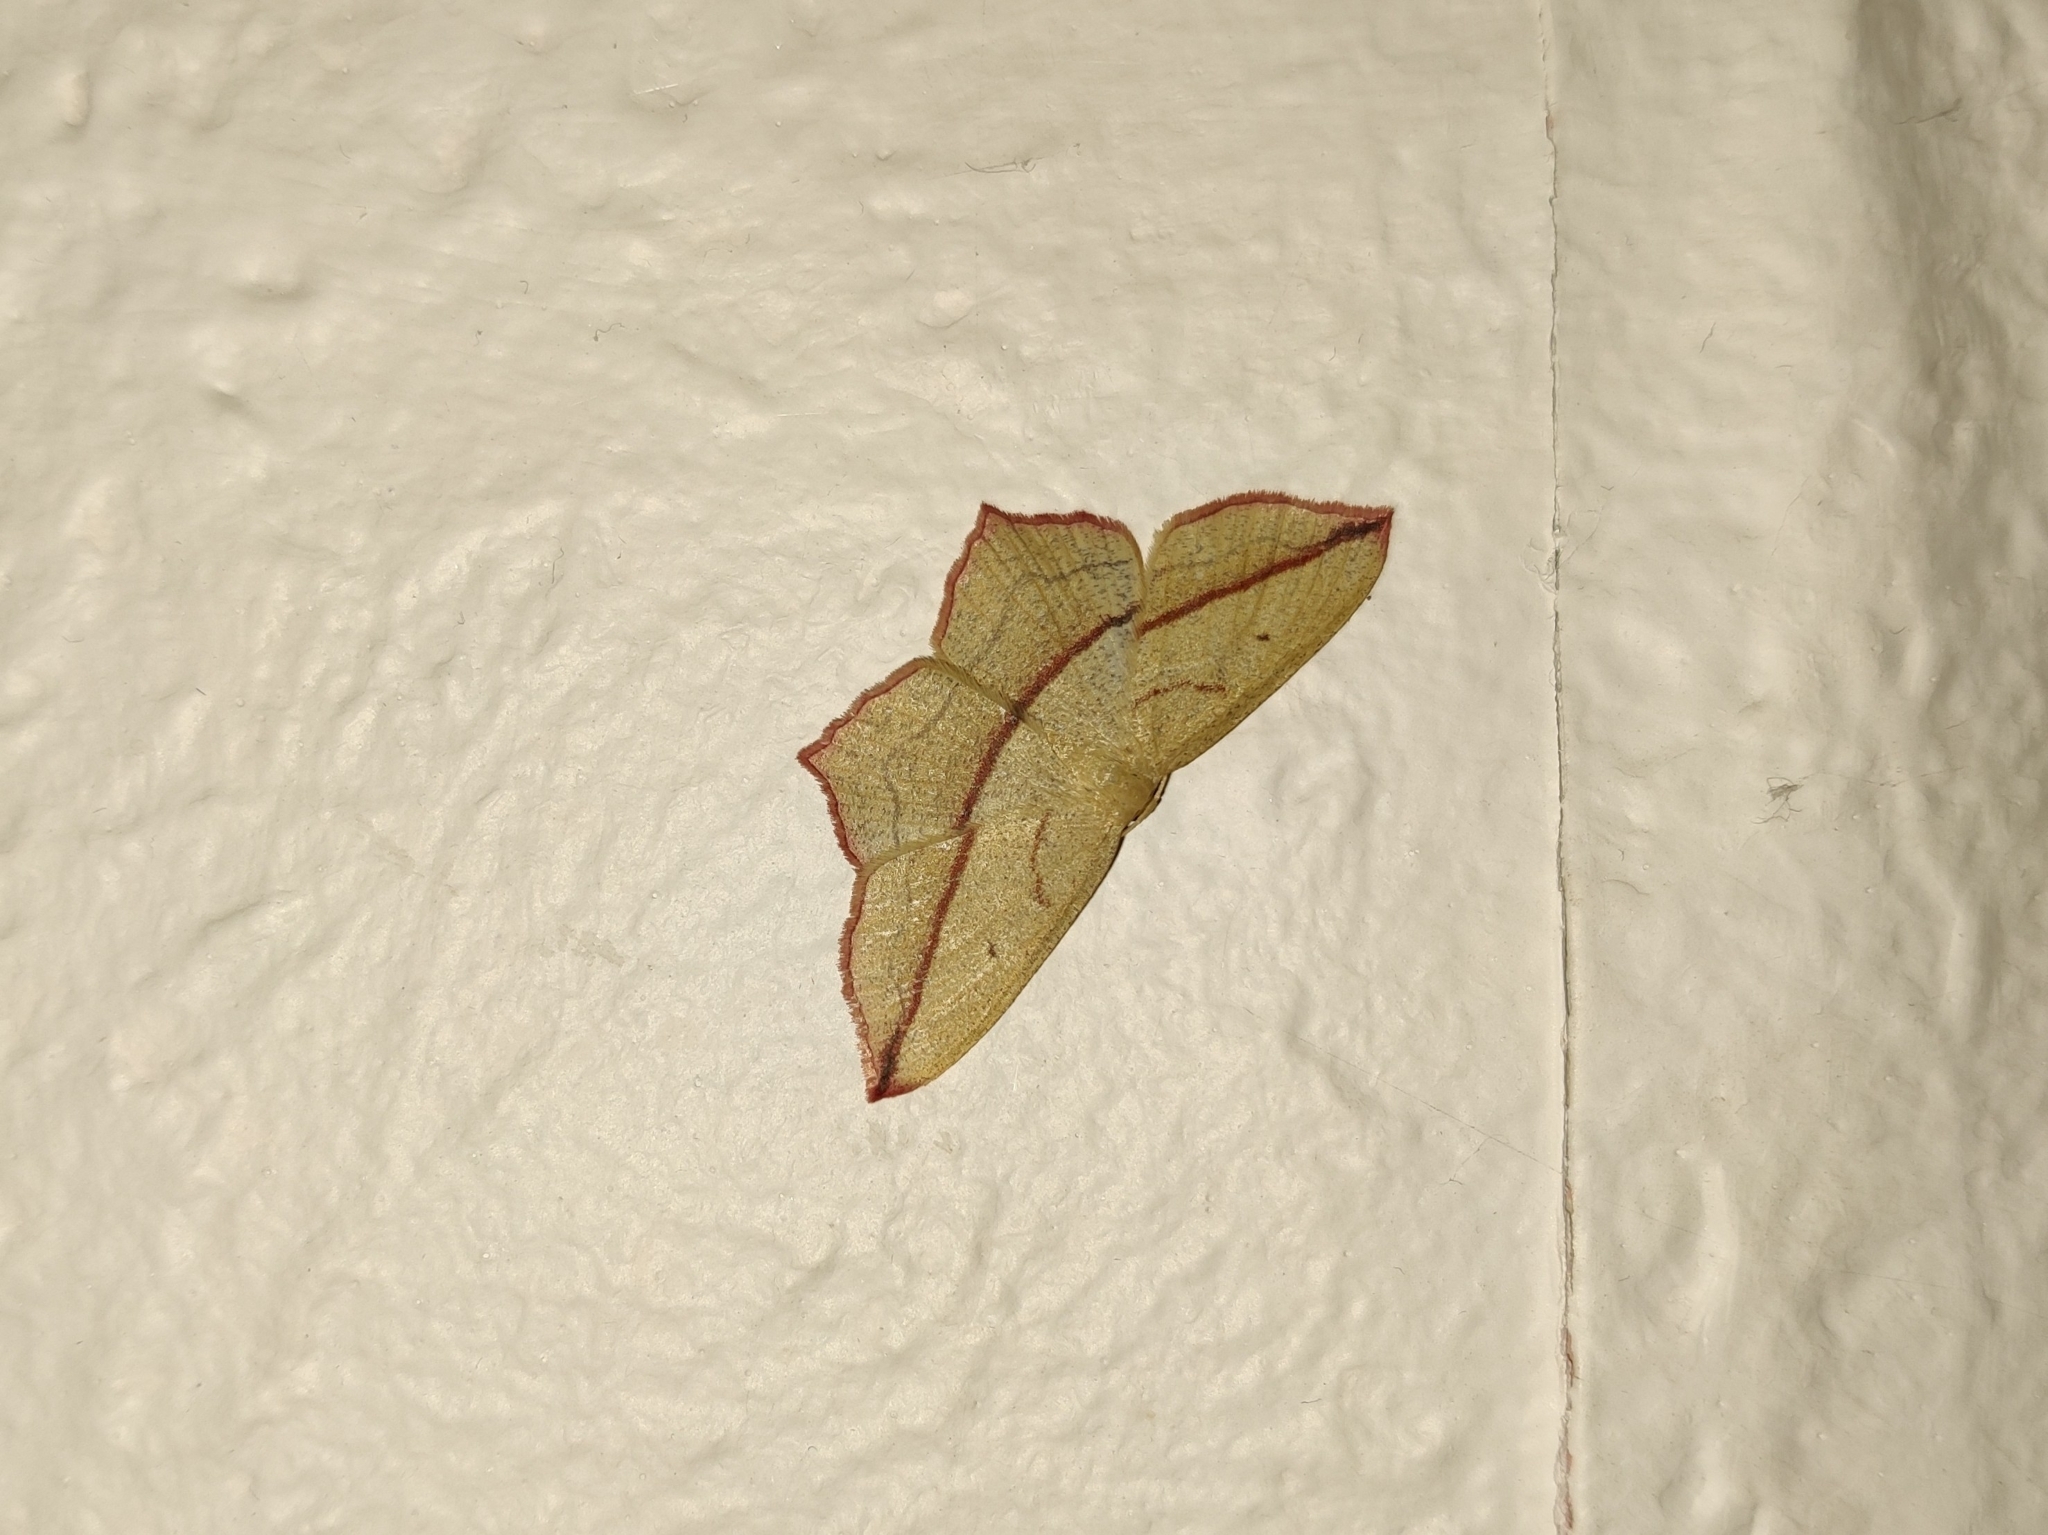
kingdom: Animalia
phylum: Arthropoda
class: Insecta
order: Lepidoptera
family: Geometridae
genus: Timandra
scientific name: Timandra comae
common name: Blood-vein
